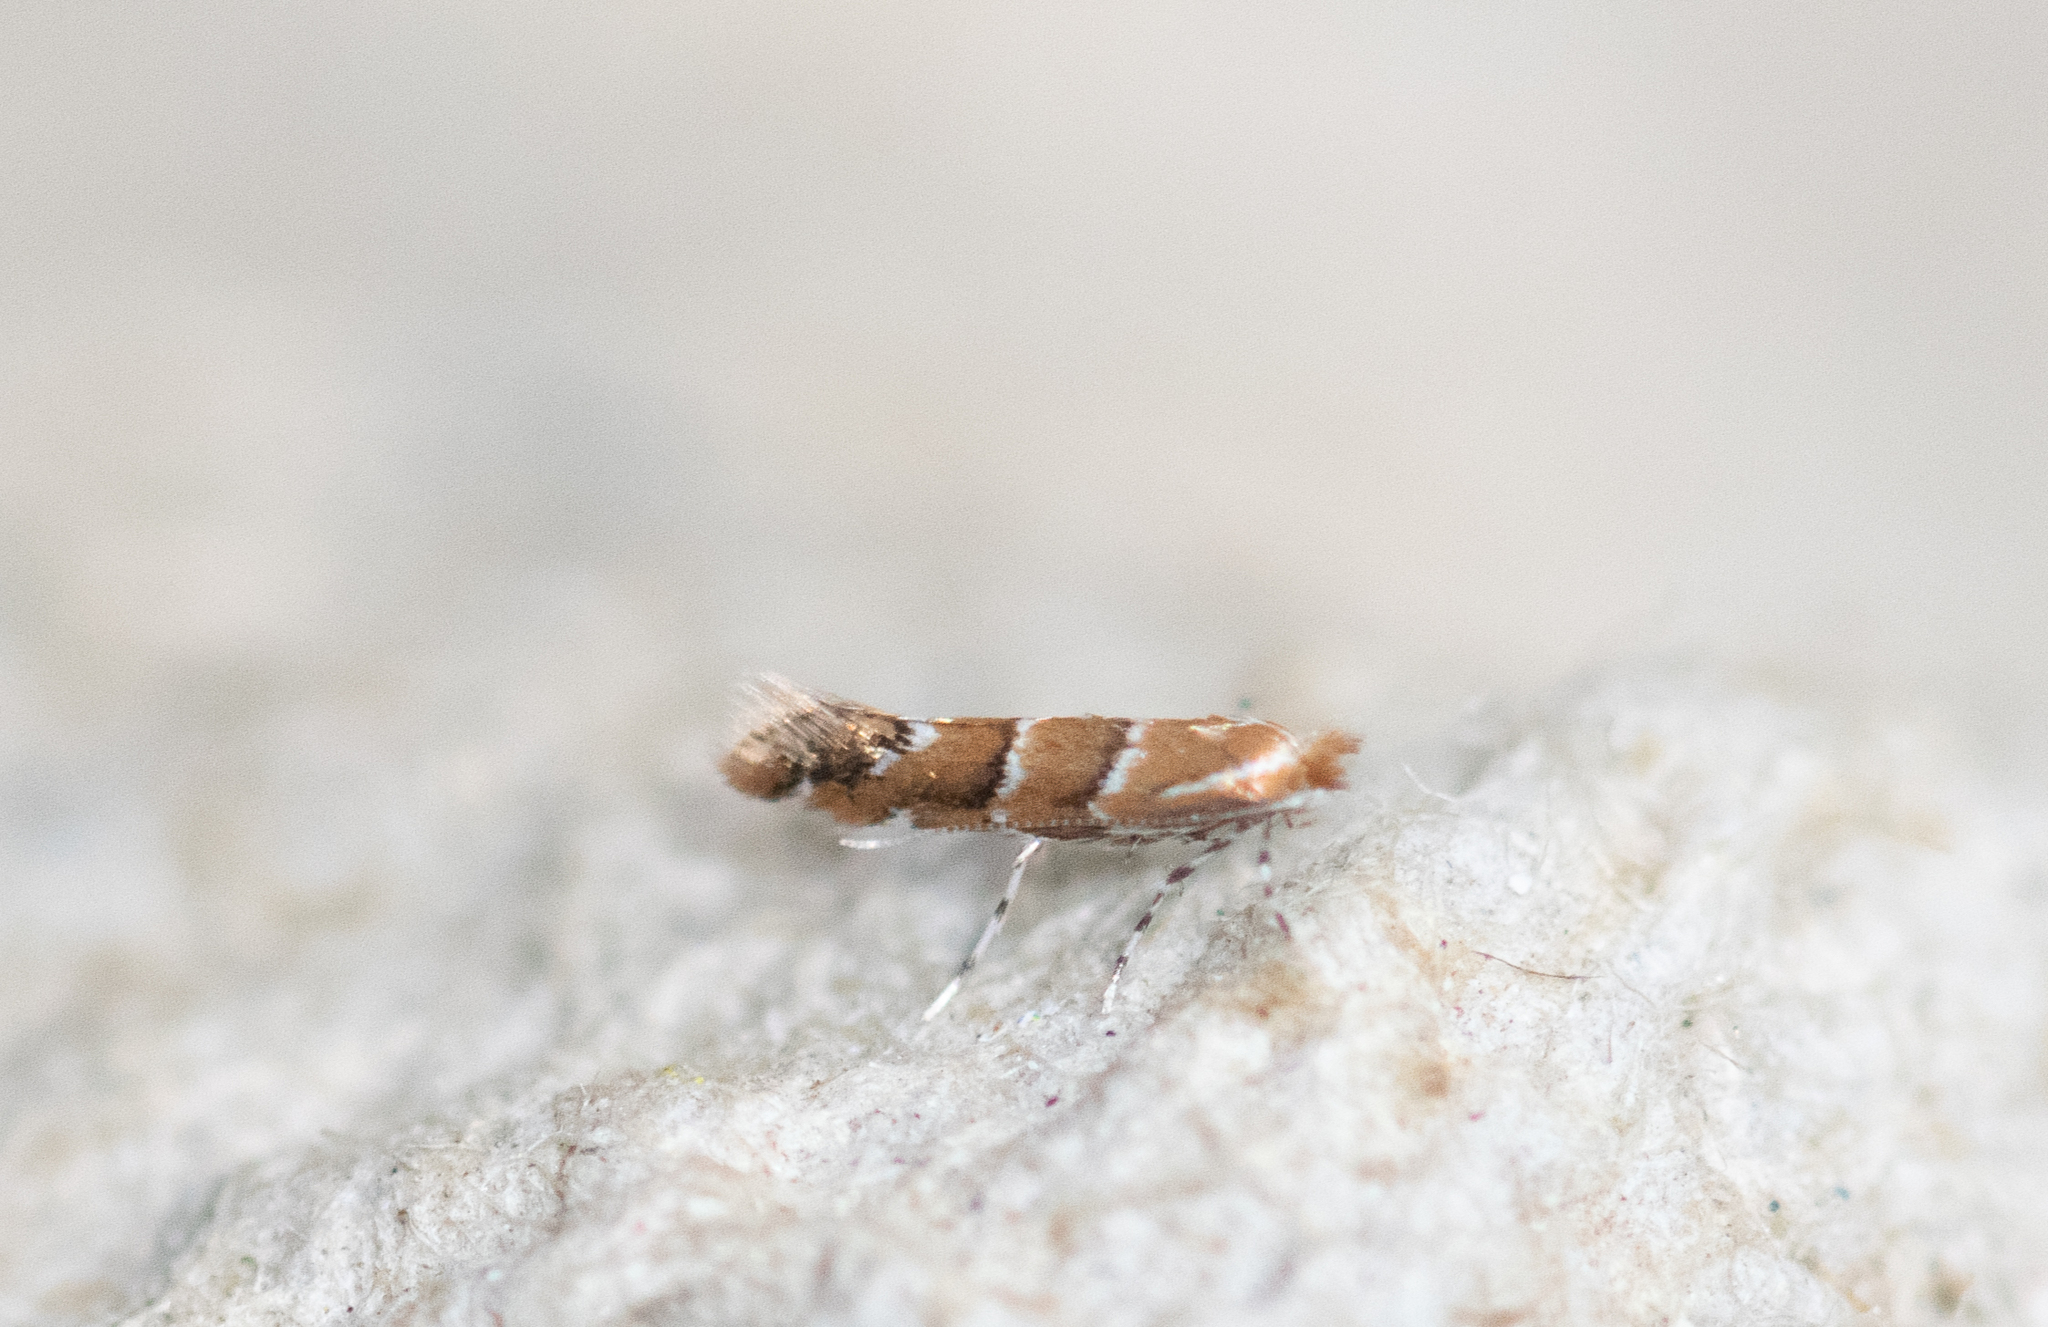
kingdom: Animalia
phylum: Arthropoda
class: Insecta
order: Lepidoptera
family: Gracillariidae
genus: Cameraria
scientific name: Cameraria ohridella
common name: Horse-chestnut leaf-miner
